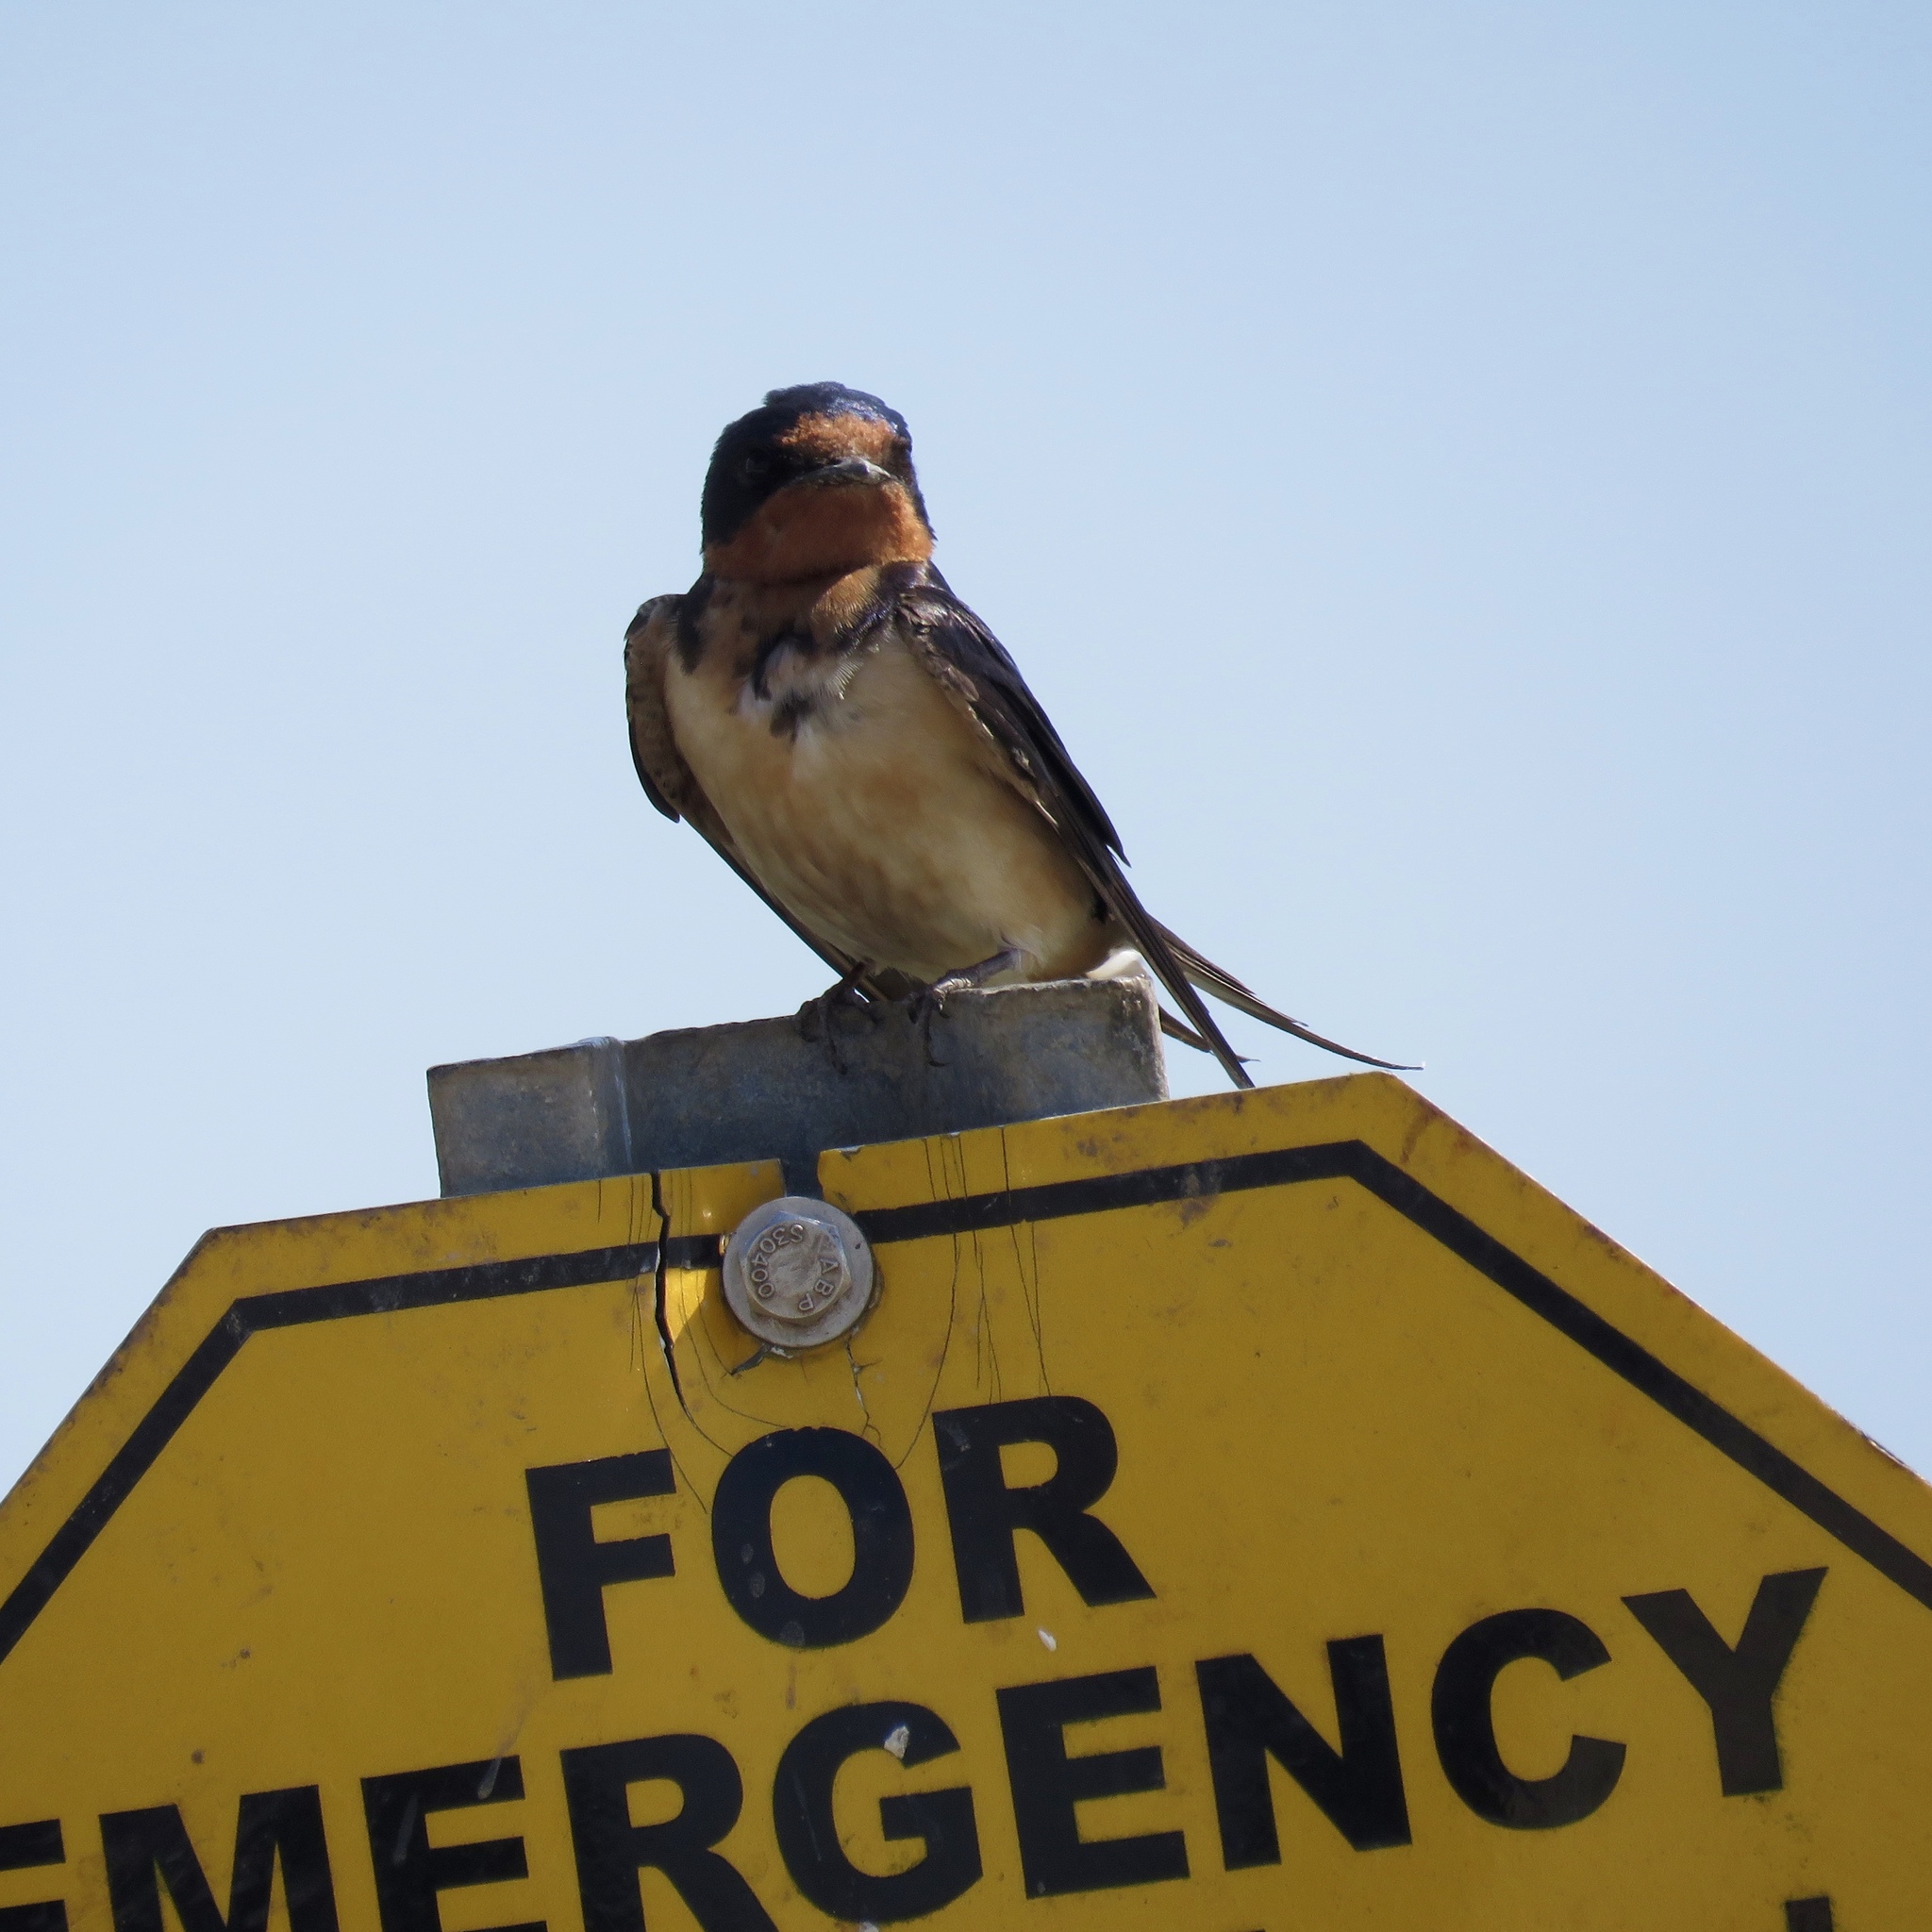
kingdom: Animalia
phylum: Chordata
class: Aves
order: Passeriformes
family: Hirundinidae
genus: Hirundo
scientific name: Hirundo rustica
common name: Barn swallow
